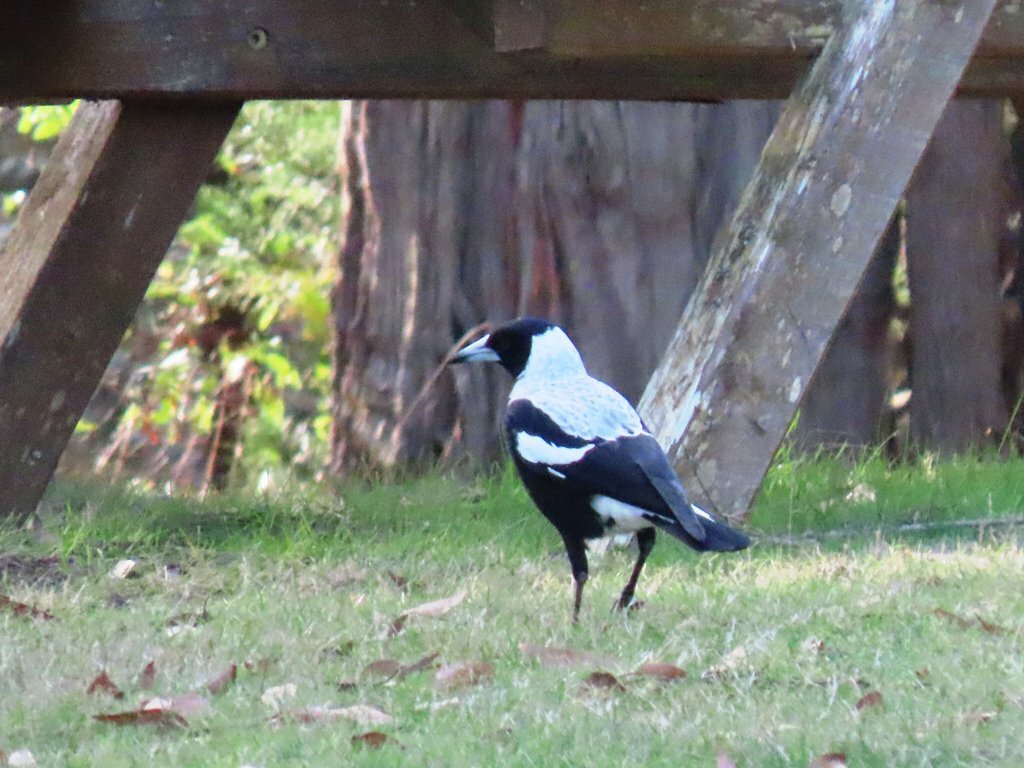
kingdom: Animalia
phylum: Chordata
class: Aves
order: Passeriformes
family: Cracticidae
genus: Gymnorhina
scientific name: Gymnorhina tibicen
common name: Australian magpie
